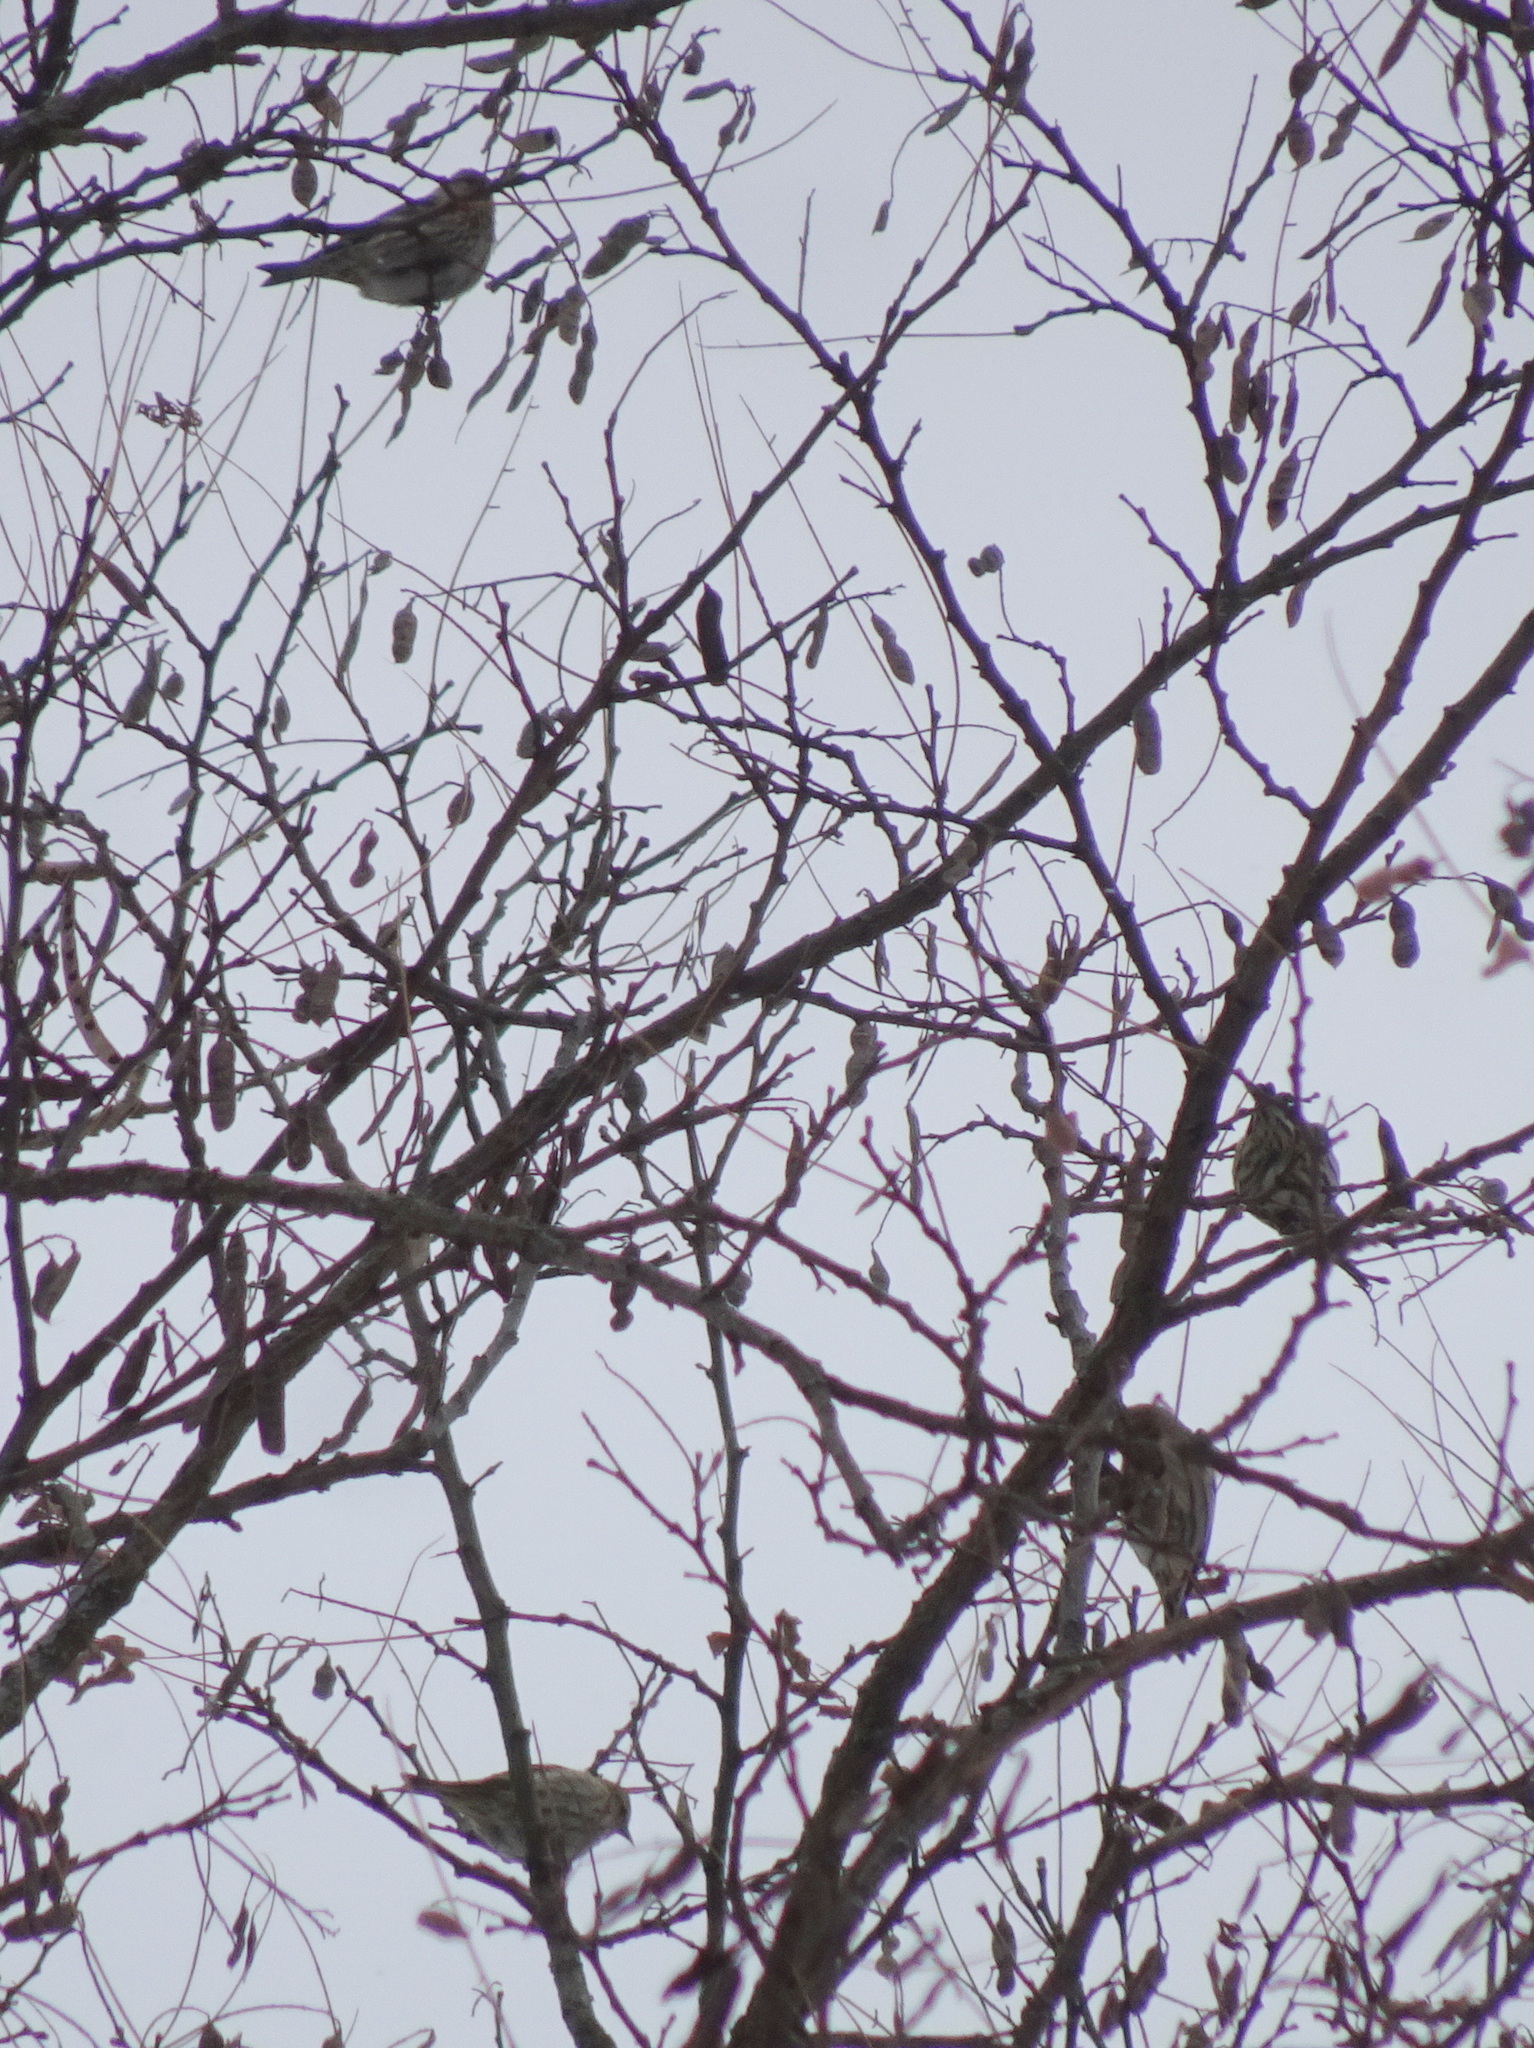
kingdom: Animalia
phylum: Chordata
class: Aves
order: Passeriformes
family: Fringillidae
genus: Spinus
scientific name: Spinus pinus
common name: Pine siskin
